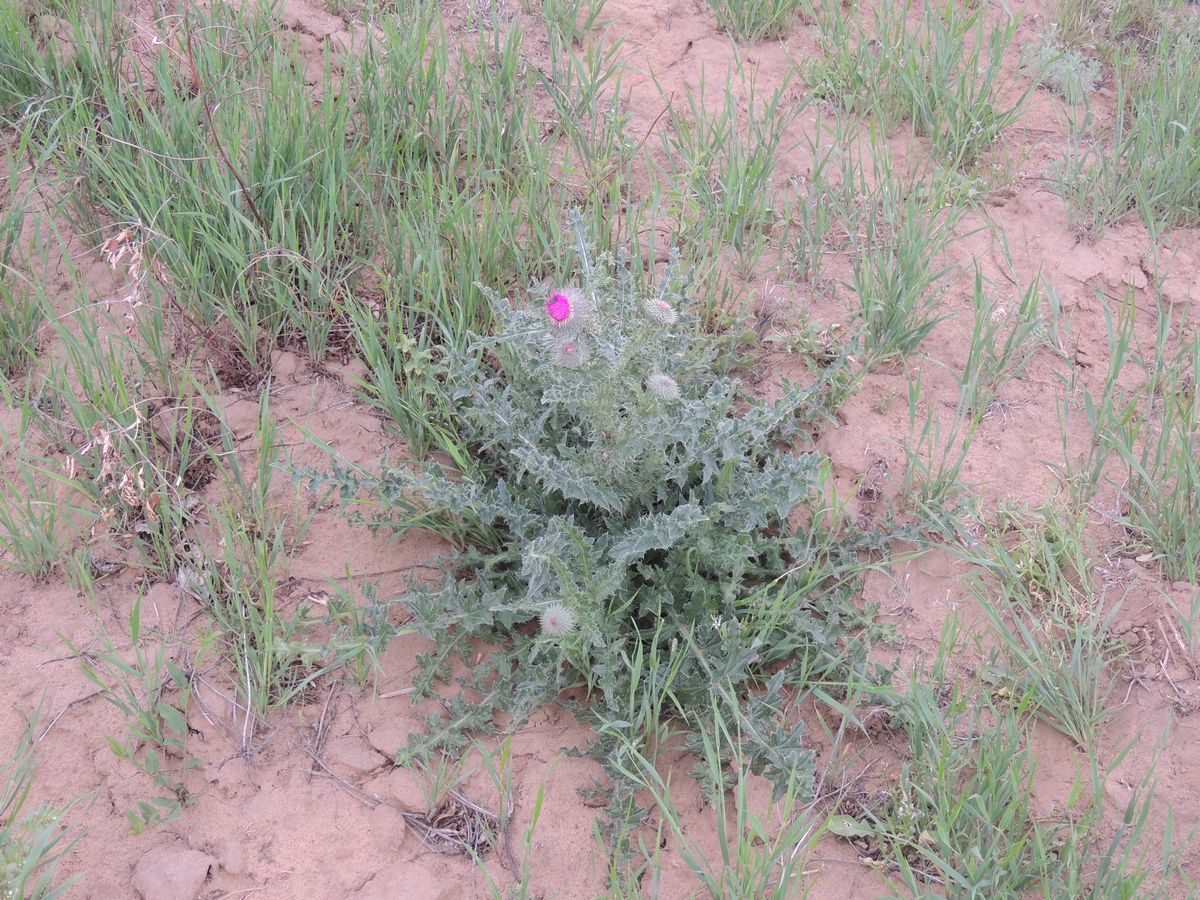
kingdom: Plantae
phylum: Tracheophyta
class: Magnoliopsida
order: Asterales
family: Asteraceae
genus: Carduus
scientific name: Carduus uncinatus
